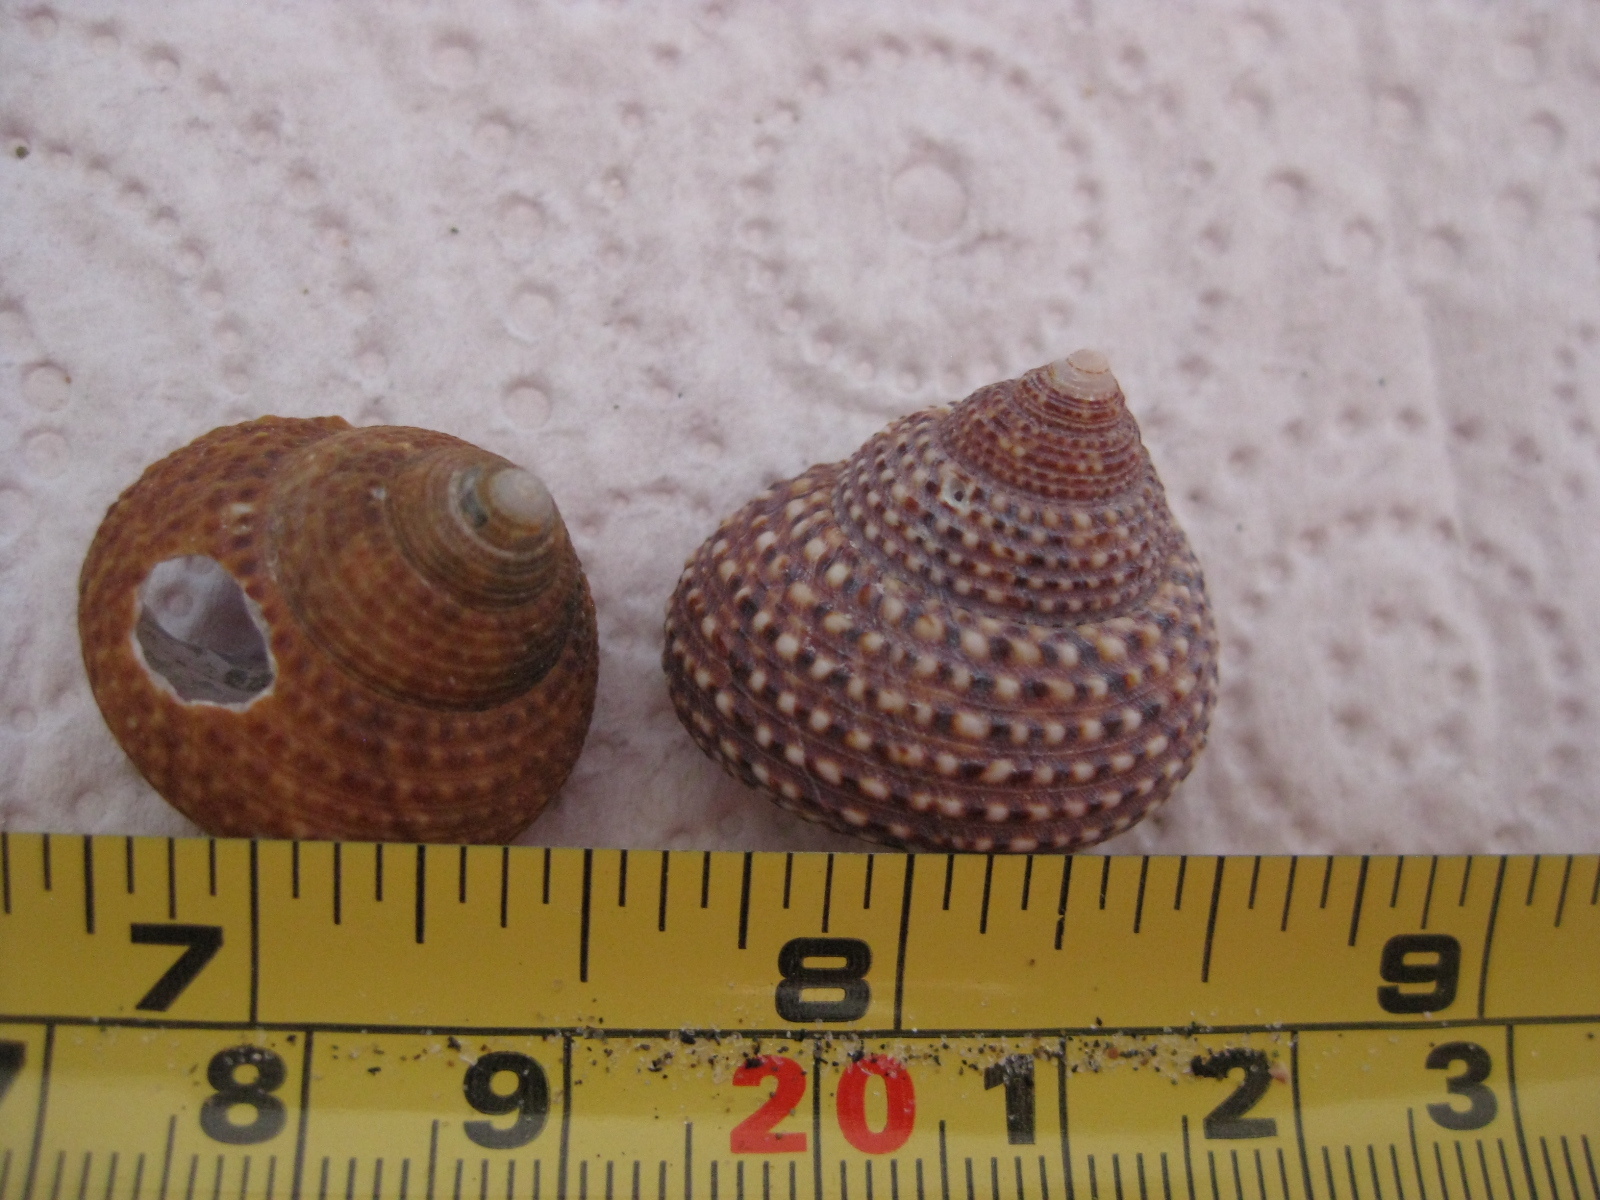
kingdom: Animalia
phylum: Mollusca
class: Gastropoda
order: Trochida
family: Calliostomatidae
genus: Maurea
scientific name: Maurea punctulata
